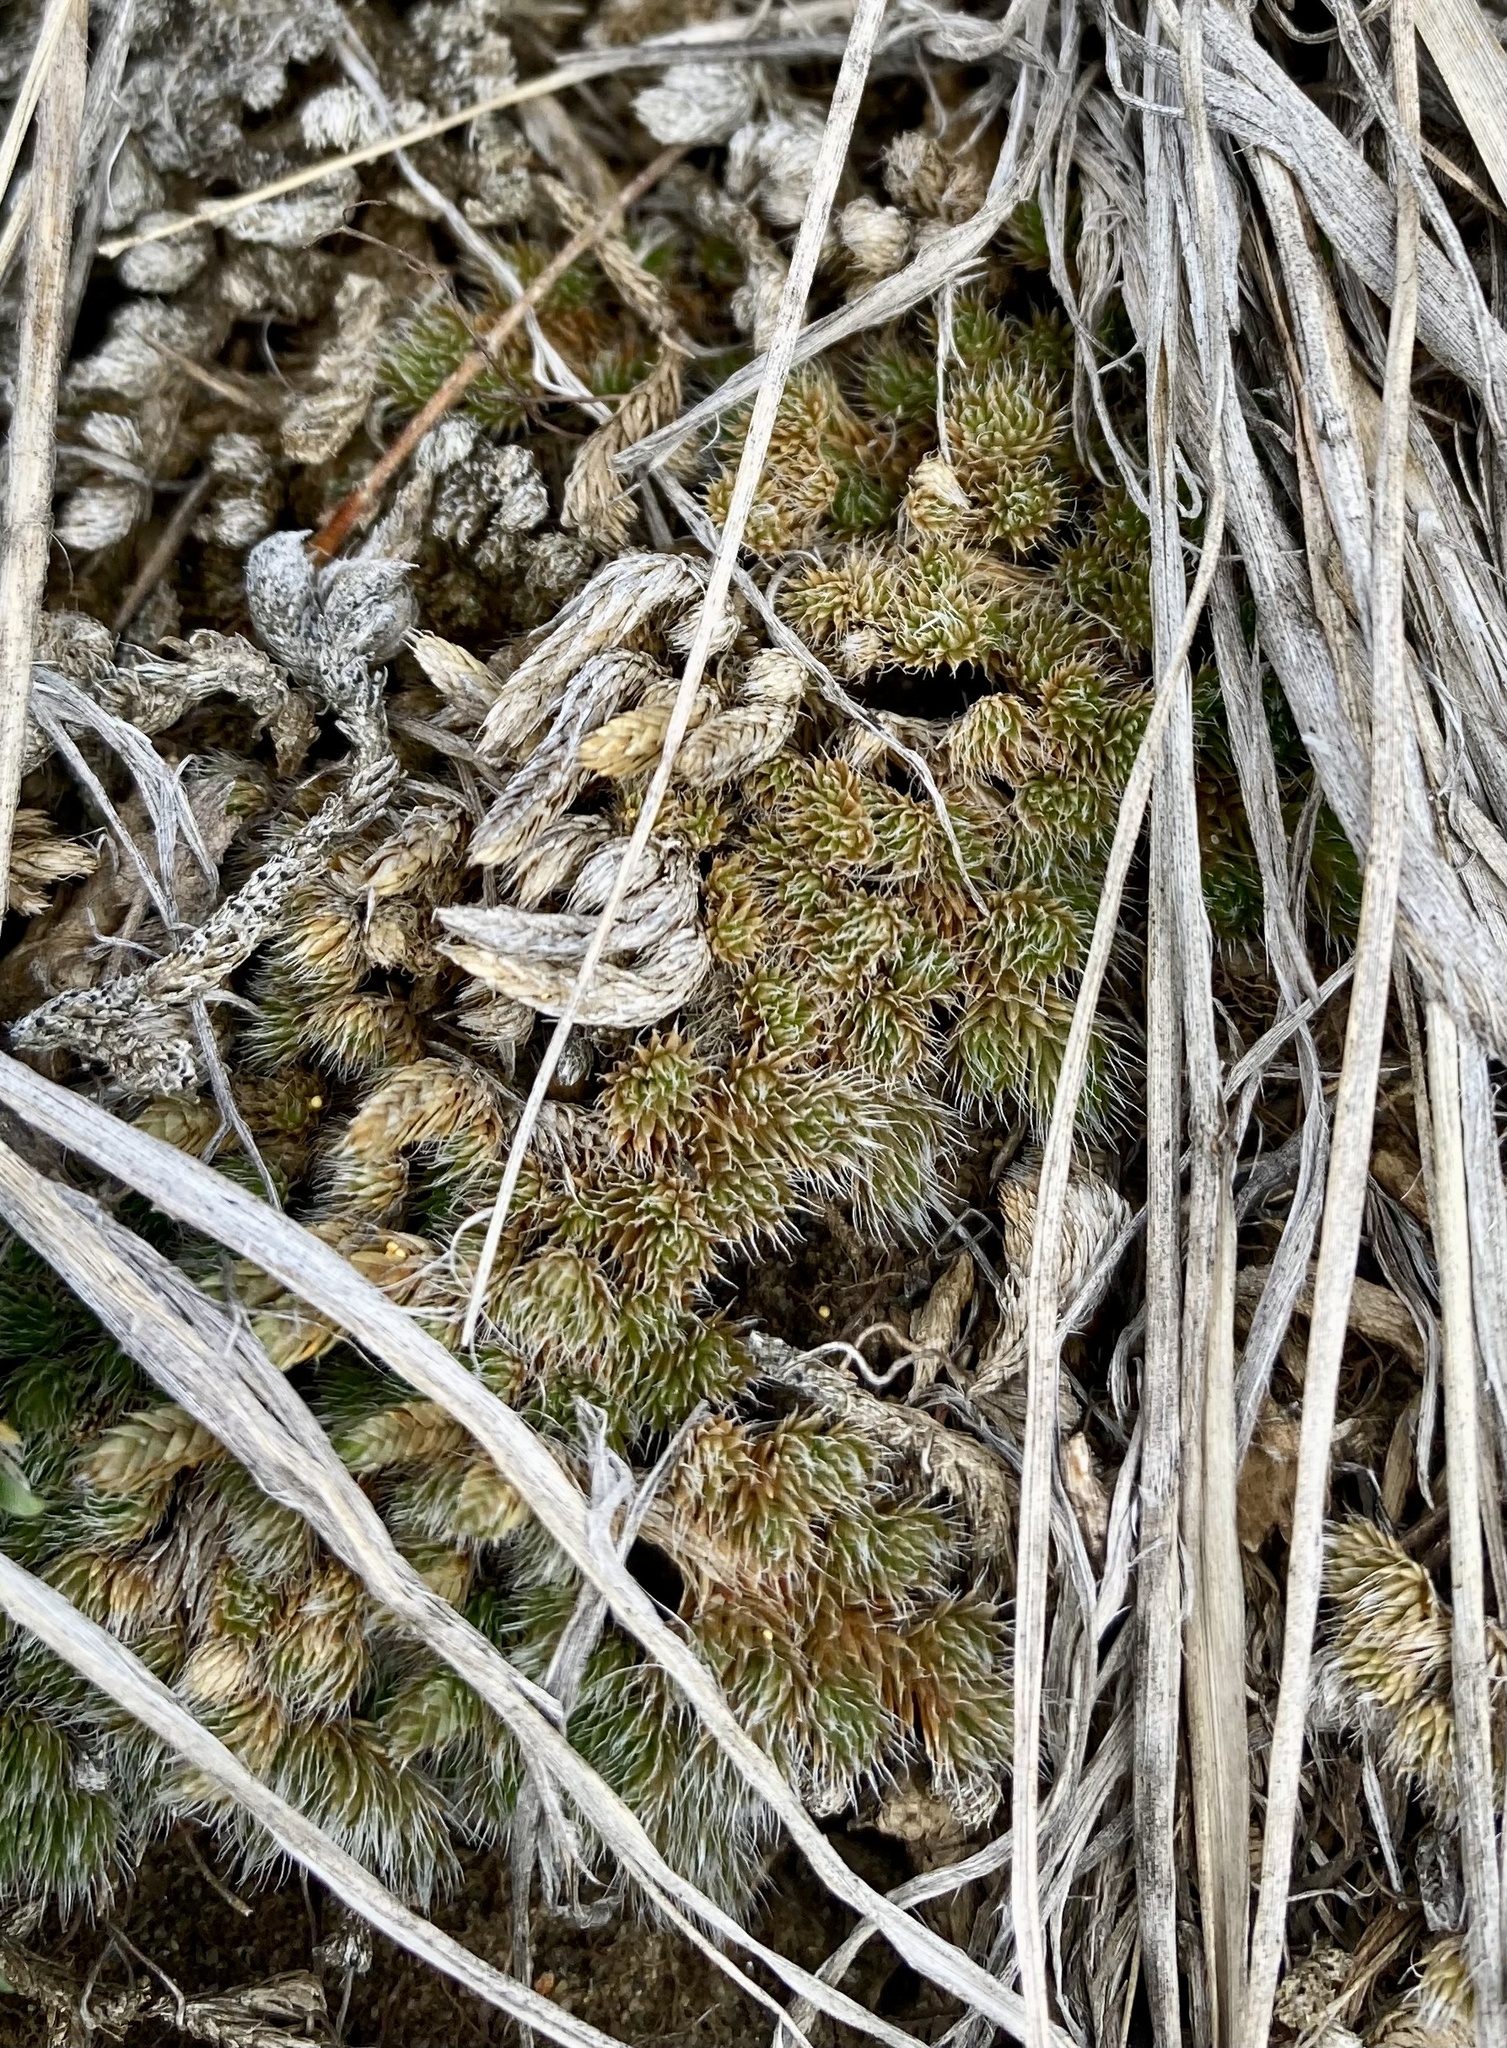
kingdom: Plantae
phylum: Tracheophyta
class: Lycopodiopsida
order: Selaginellales
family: Selaginellaceae
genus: Selaginella
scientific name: Selaginella densa
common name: Mountain spike-moss
